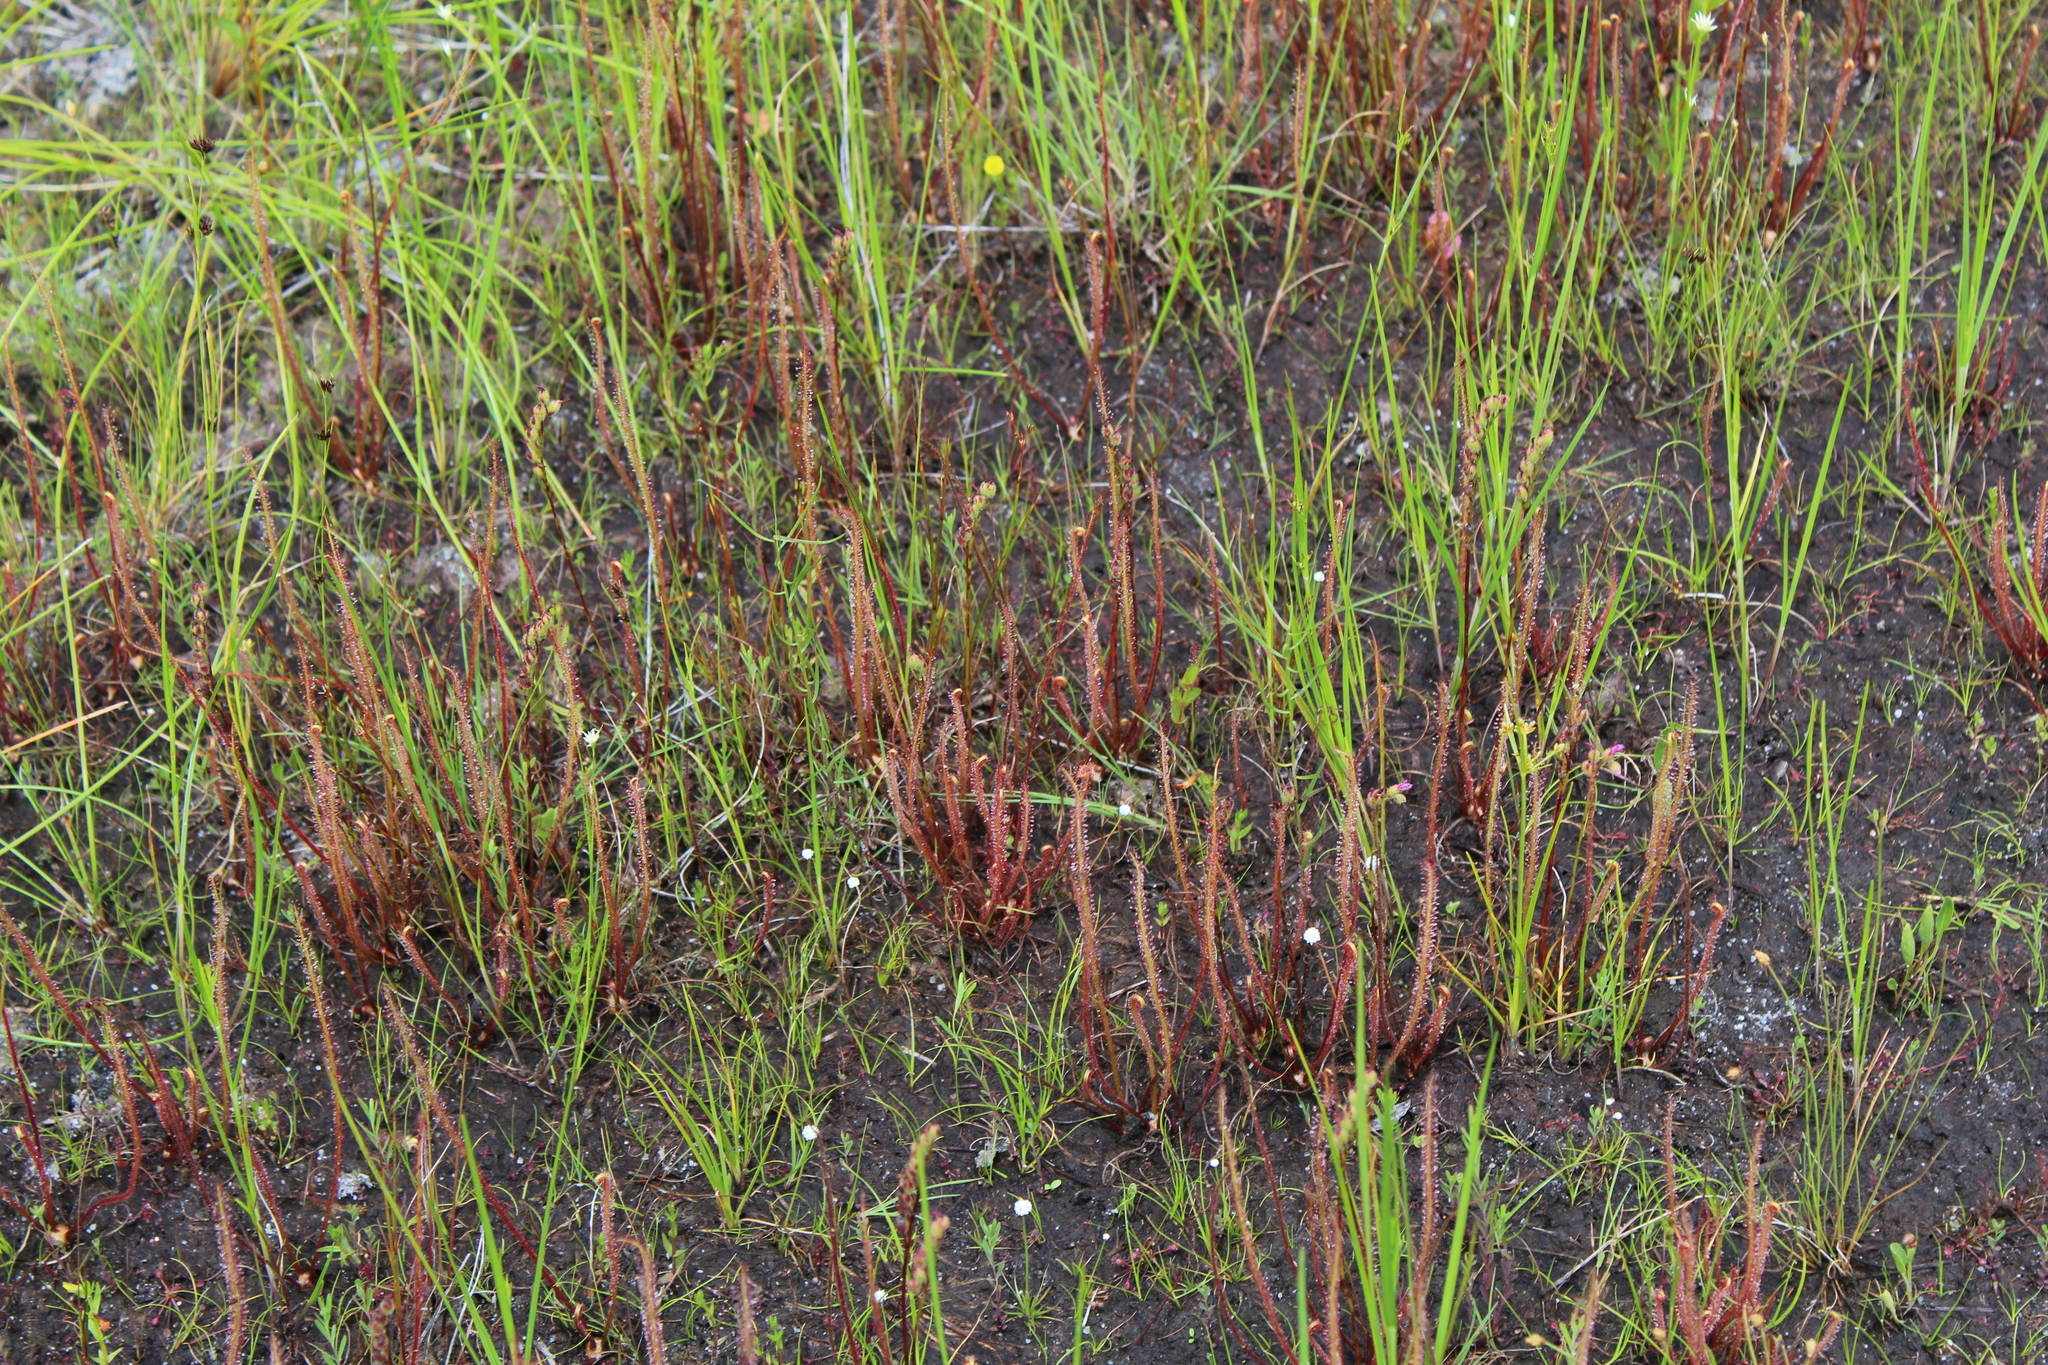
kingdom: Plantae
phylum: Tracheophyta
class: Magnoliopsida
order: Caryophyllales
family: Droseraceae
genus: Drosera
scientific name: Drosera filiformis
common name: Dew-thread
